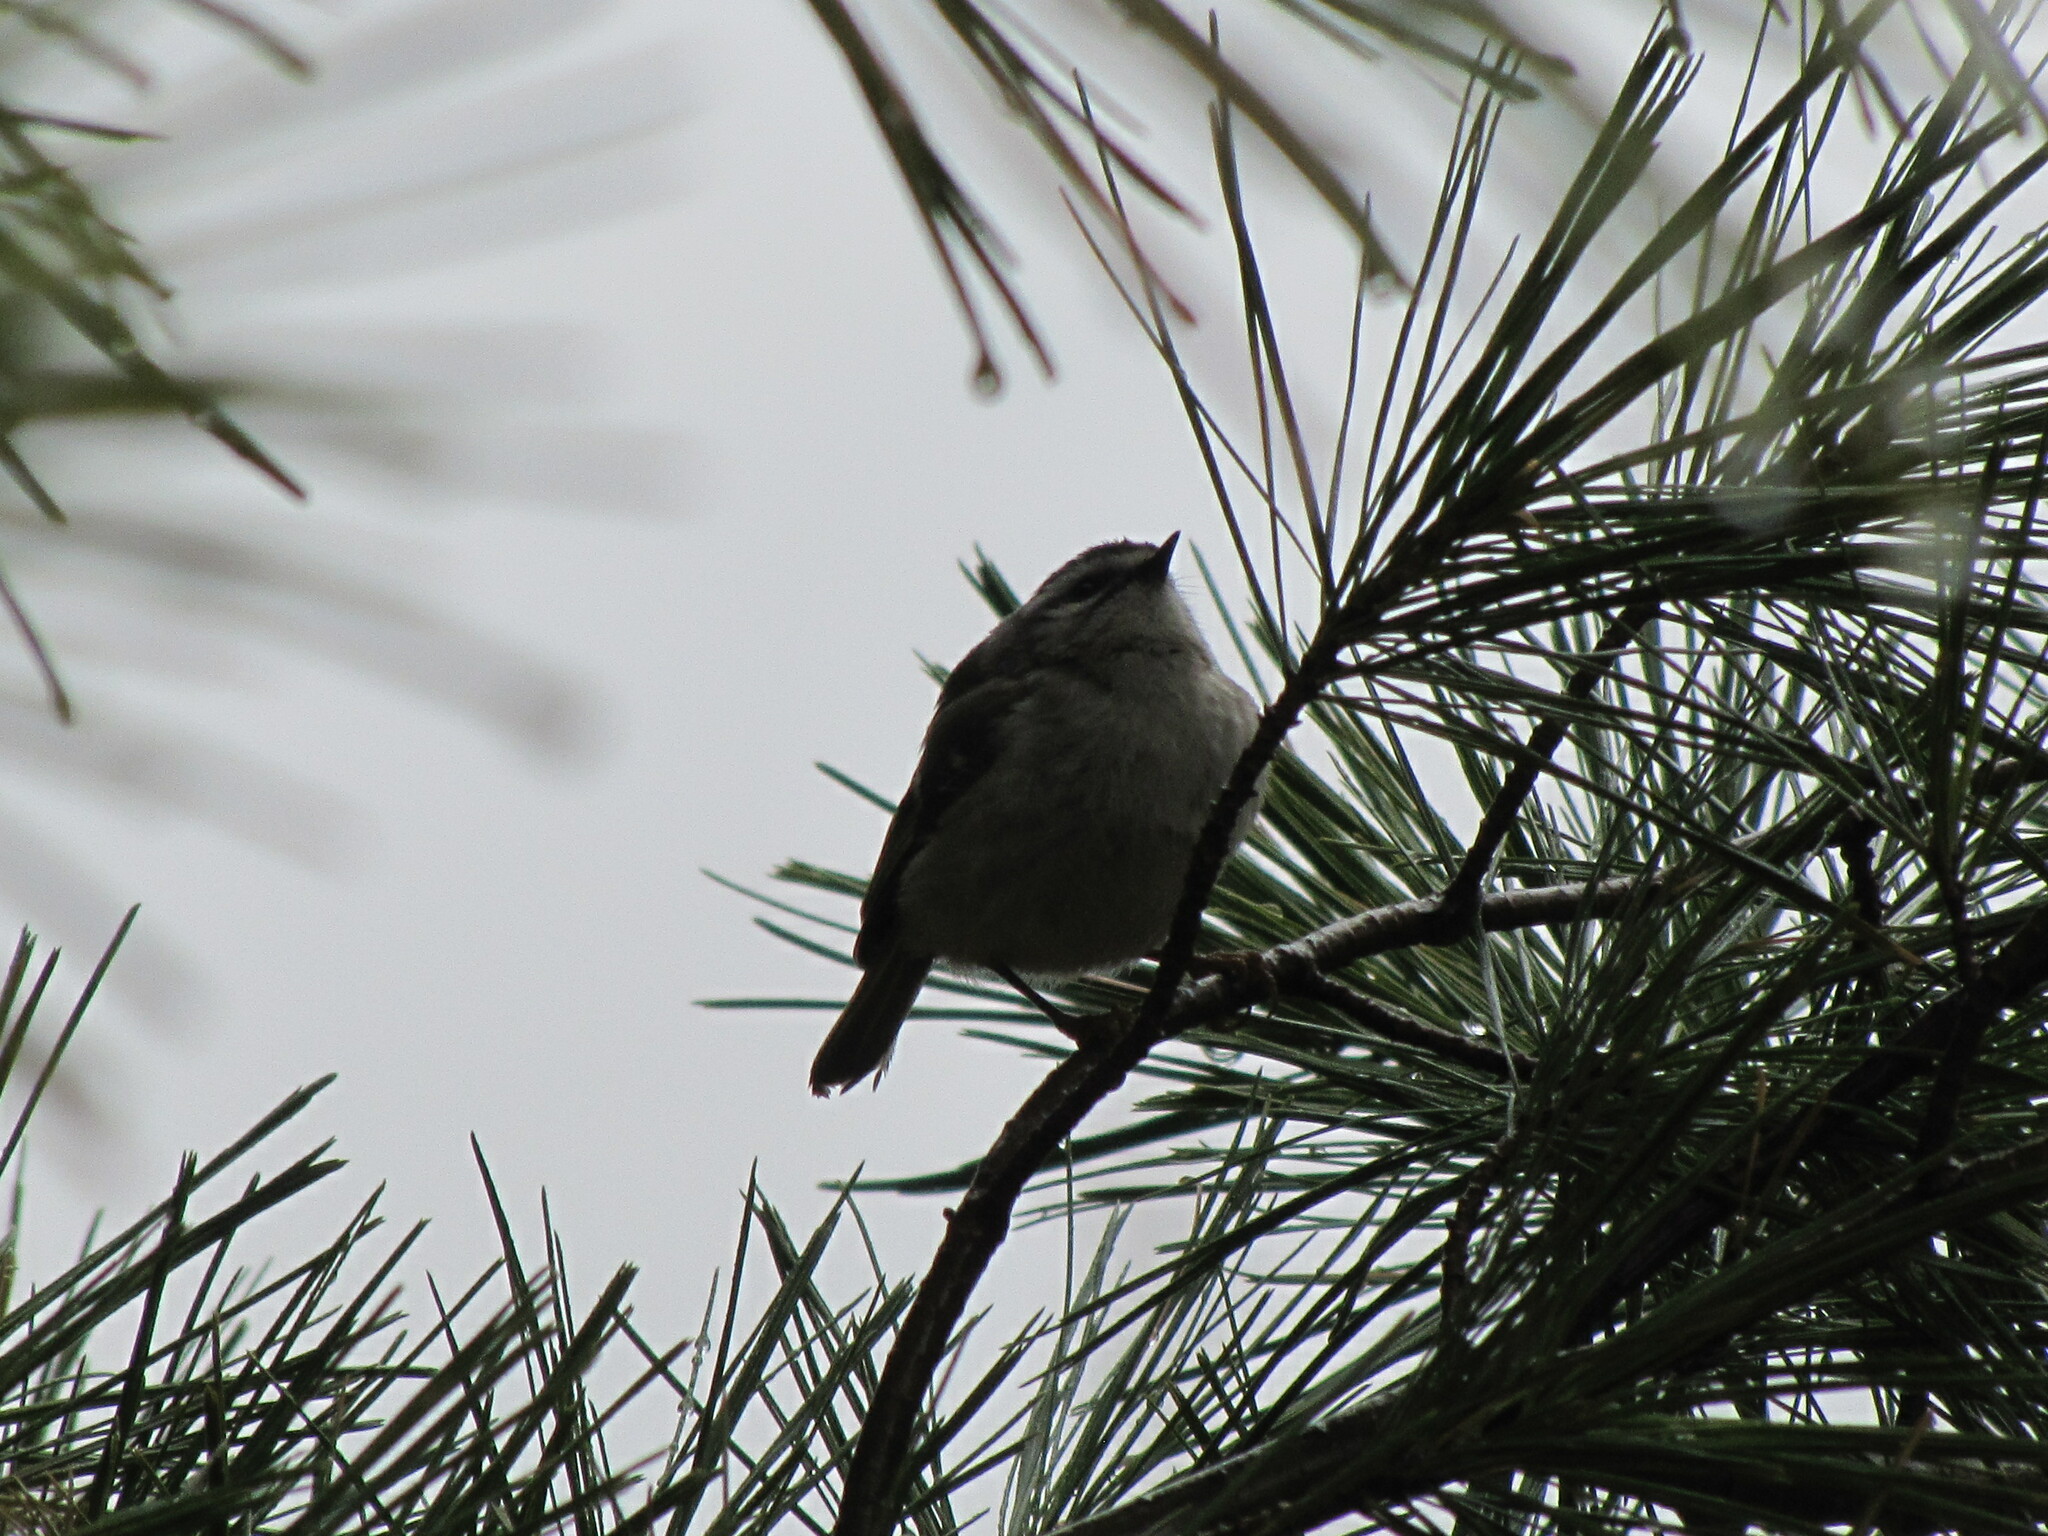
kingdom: Animalia
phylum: Chordata
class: Aves
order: Passeriformes
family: Regulidae
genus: Regulus
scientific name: Regulus satrapa
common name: Golden-crowned kinglet
